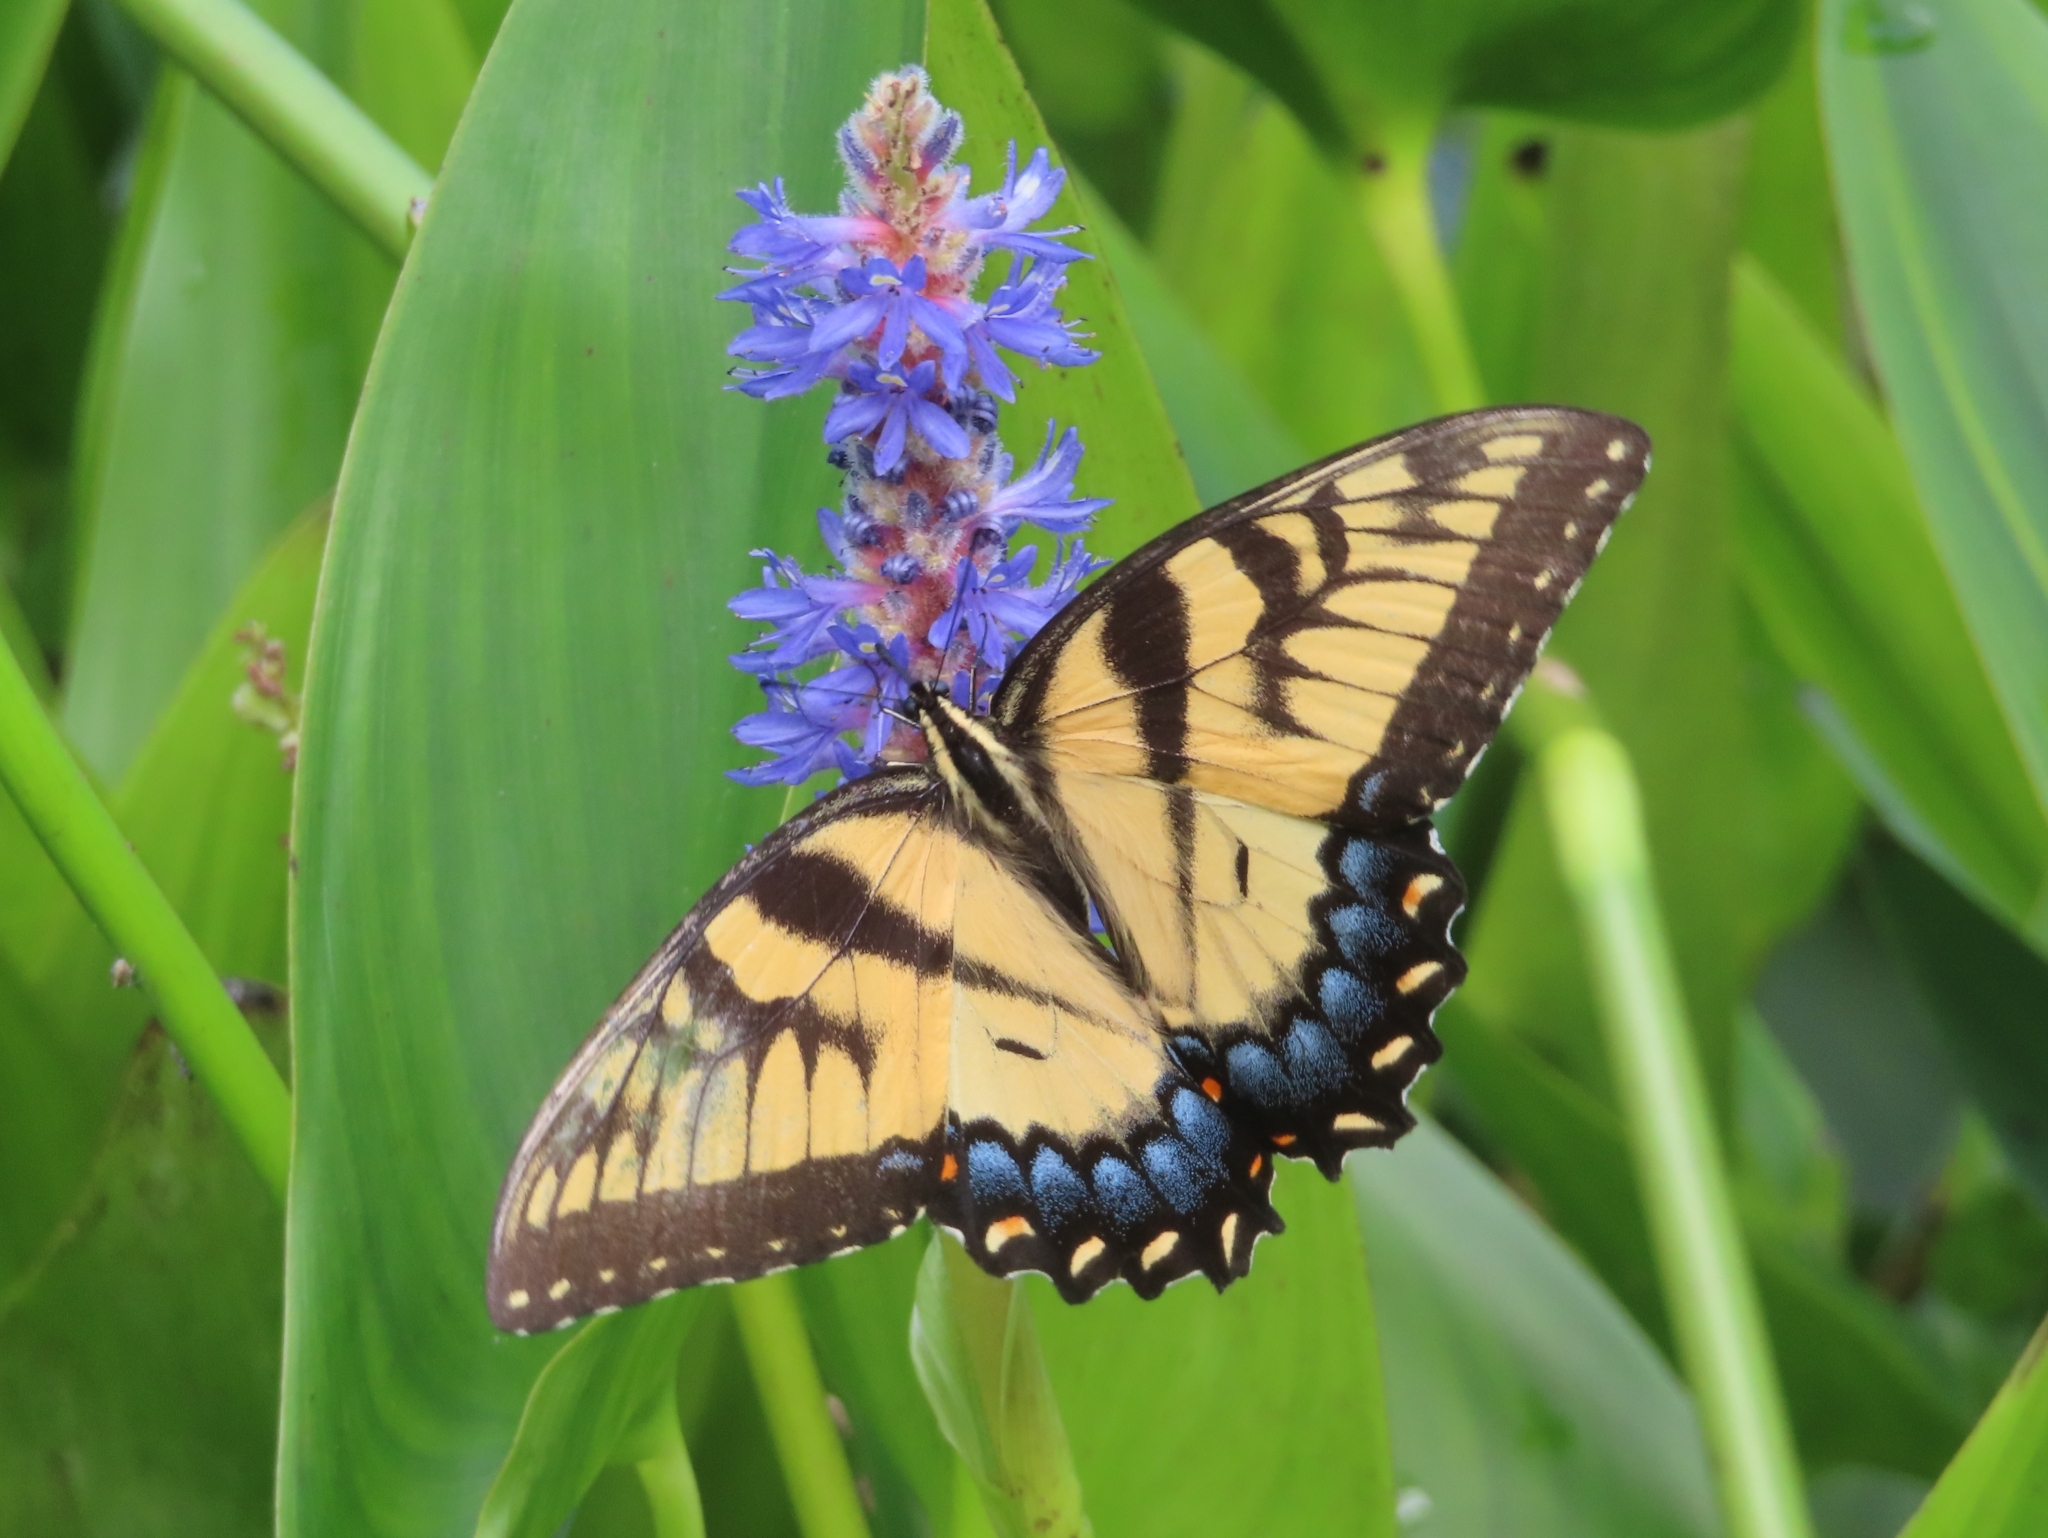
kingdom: Animalia
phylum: Arthropoda
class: Insecta
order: Lepidoptera
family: Papilionidae
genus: Papilio
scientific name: Papilio glaucus
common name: Tiger swallowtail
